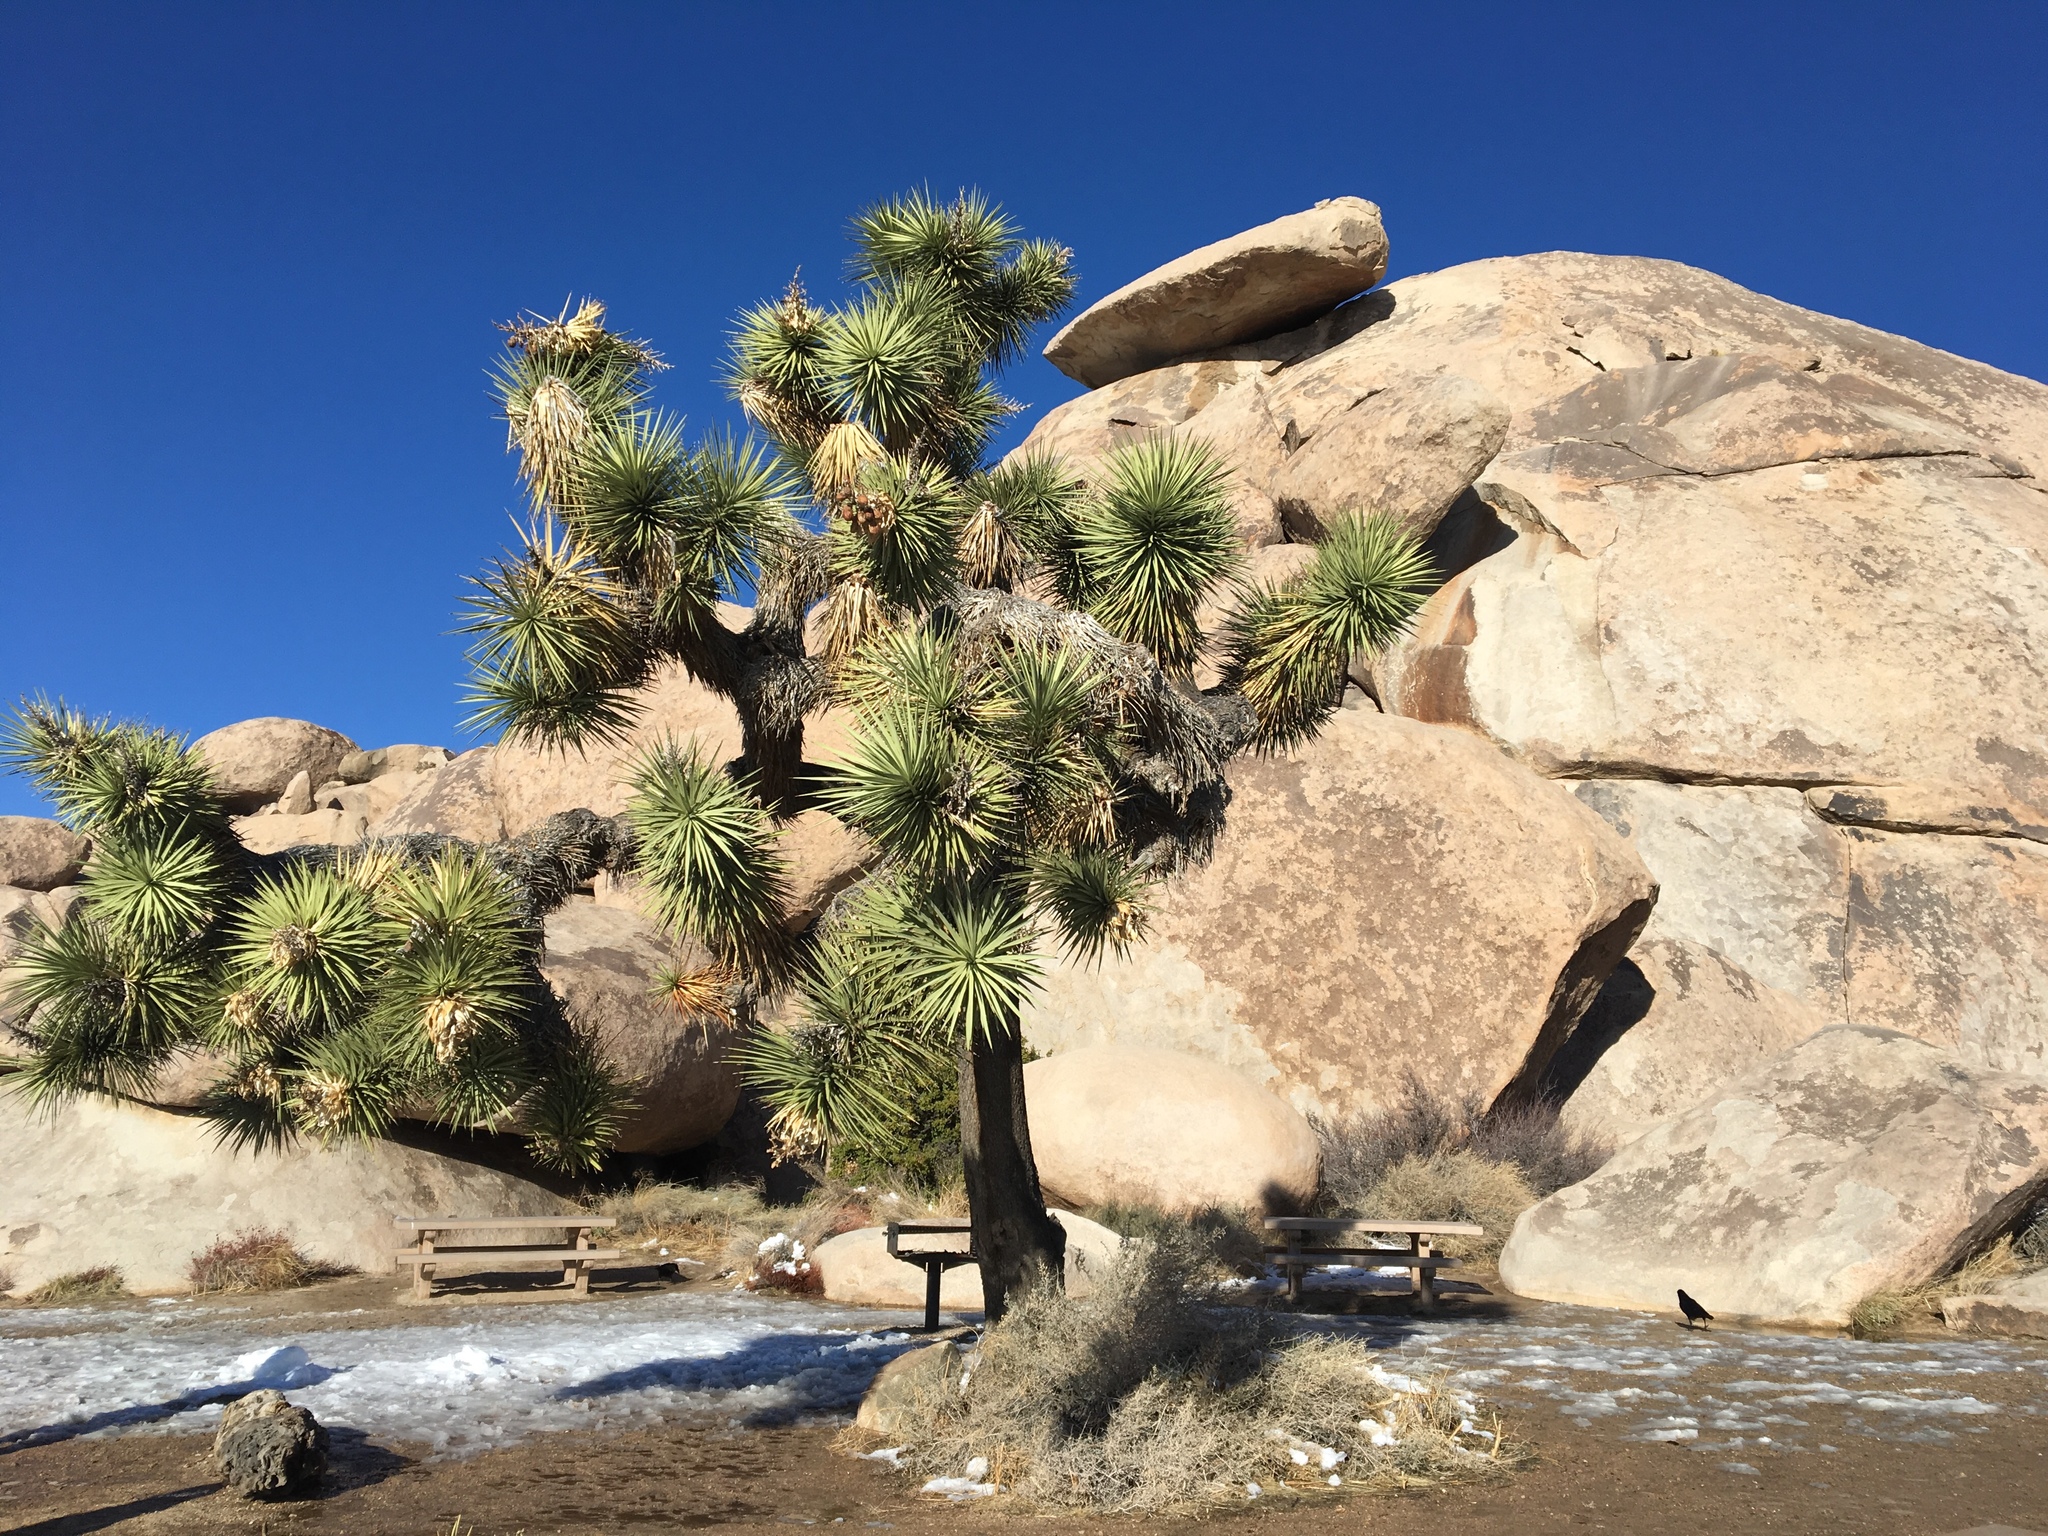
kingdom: Plantae
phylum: Tracheophyta
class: Liliopsida
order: Asparagales
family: Asparagaceae
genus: Yucca
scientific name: Yucca brevifolia
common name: Joshua tree
